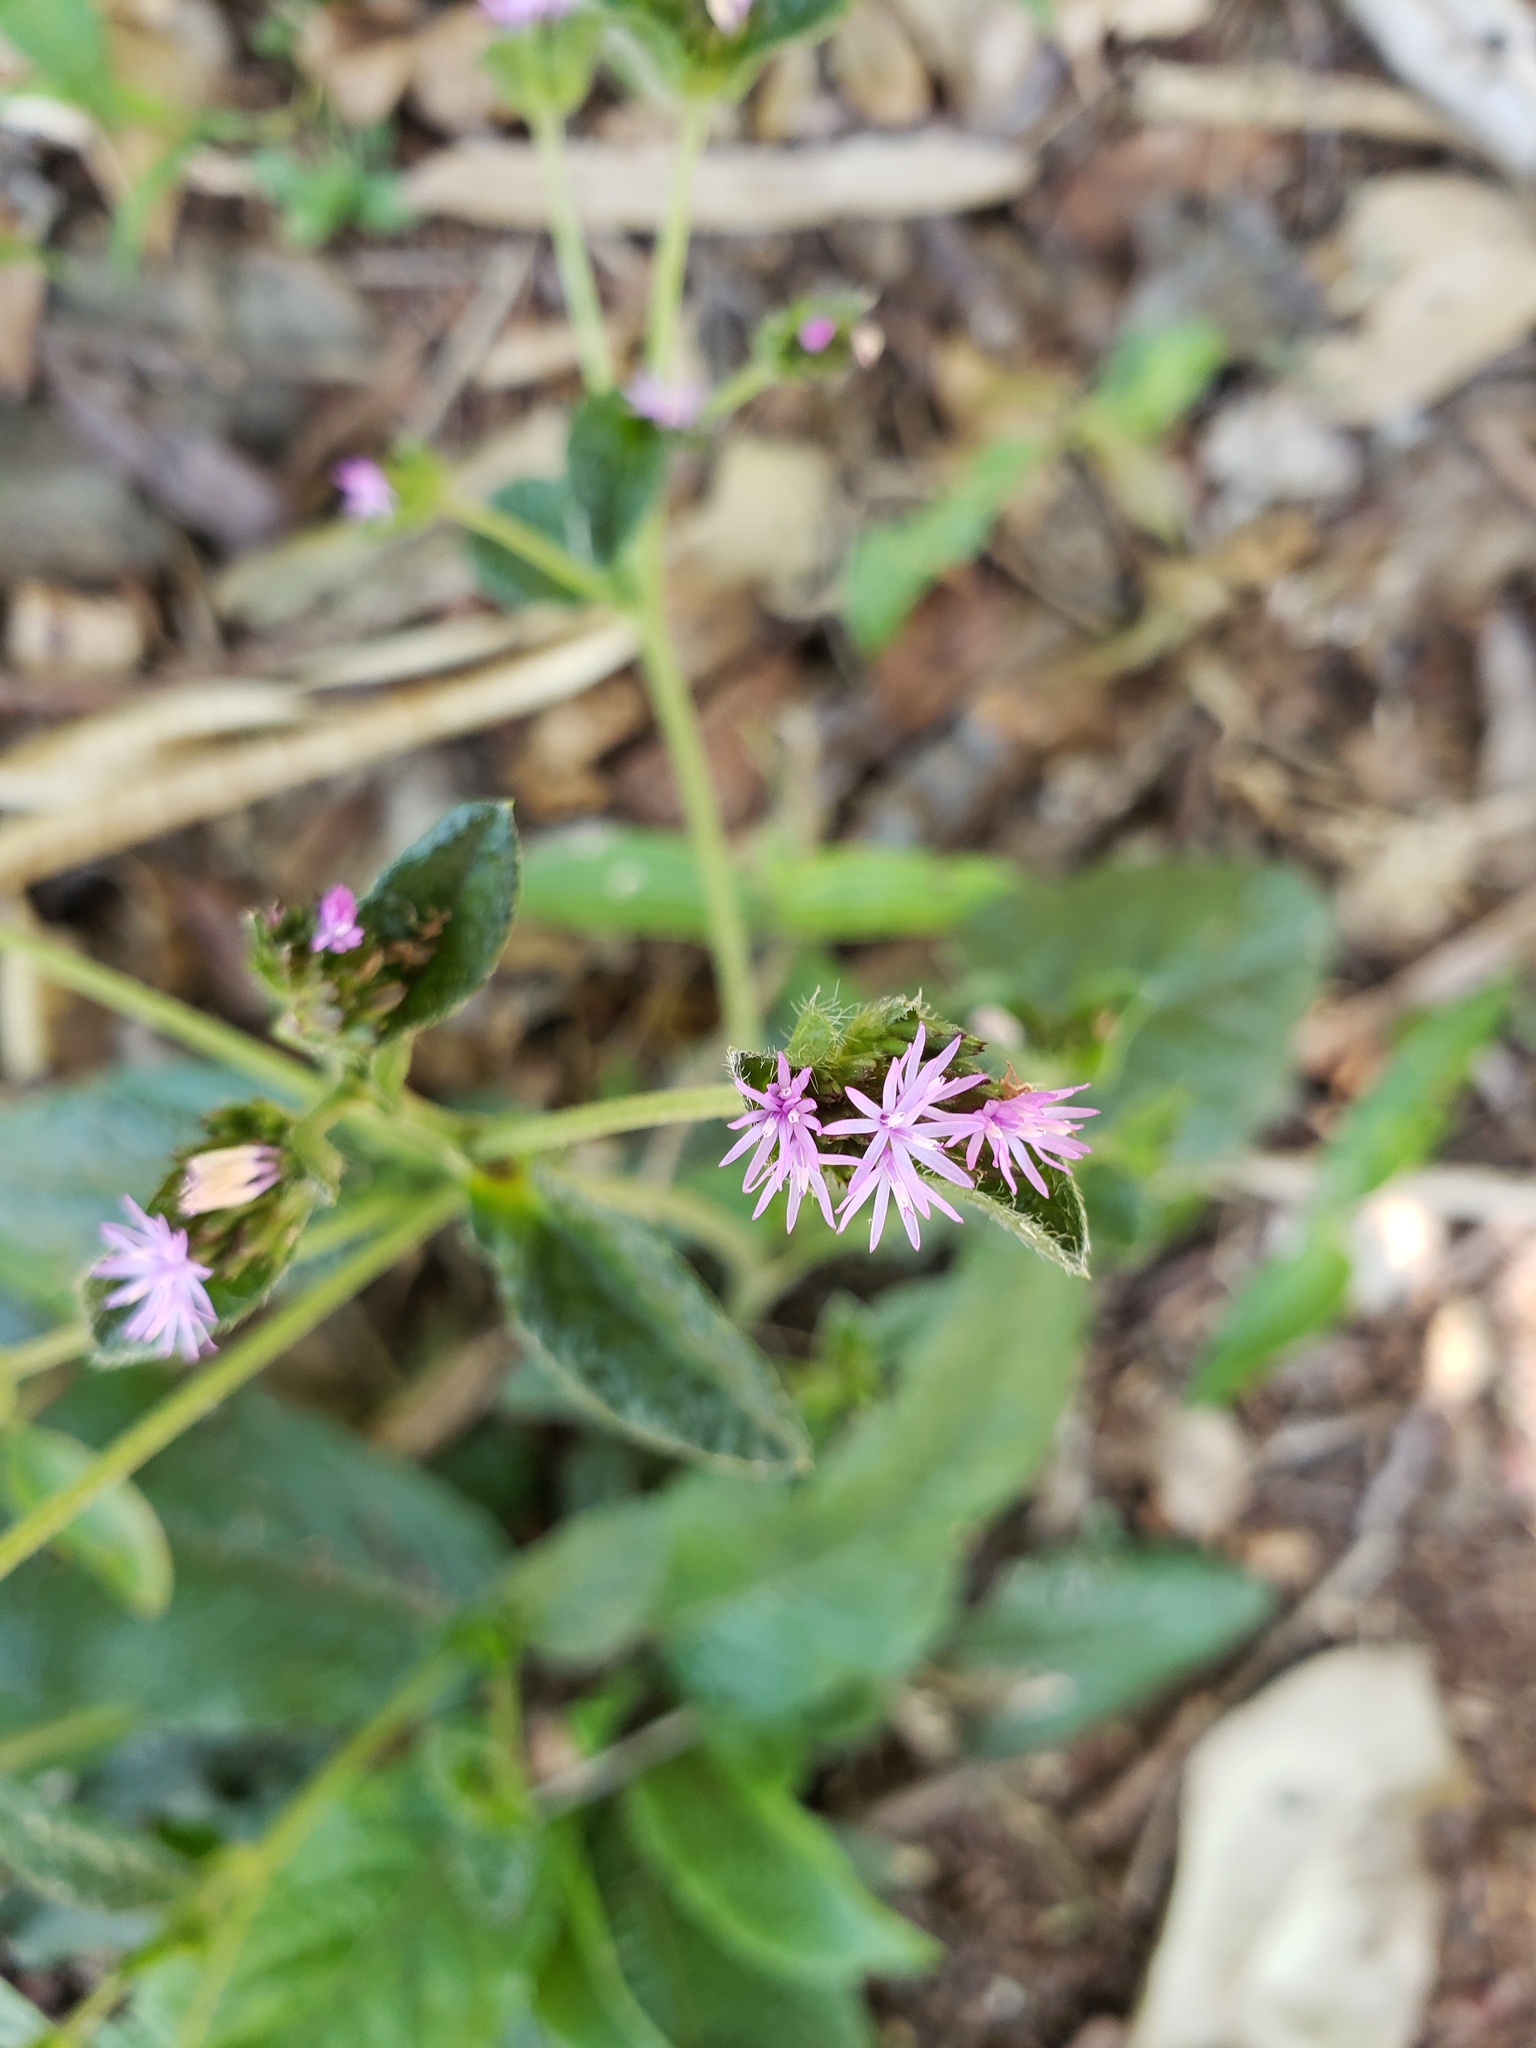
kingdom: Plantae
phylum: Tracheophyta
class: Magnoliopsida
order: Asterales
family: Asteraceae
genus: Elephantopus
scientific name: Elephantopus mollis
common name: Soft elephantsfoot
